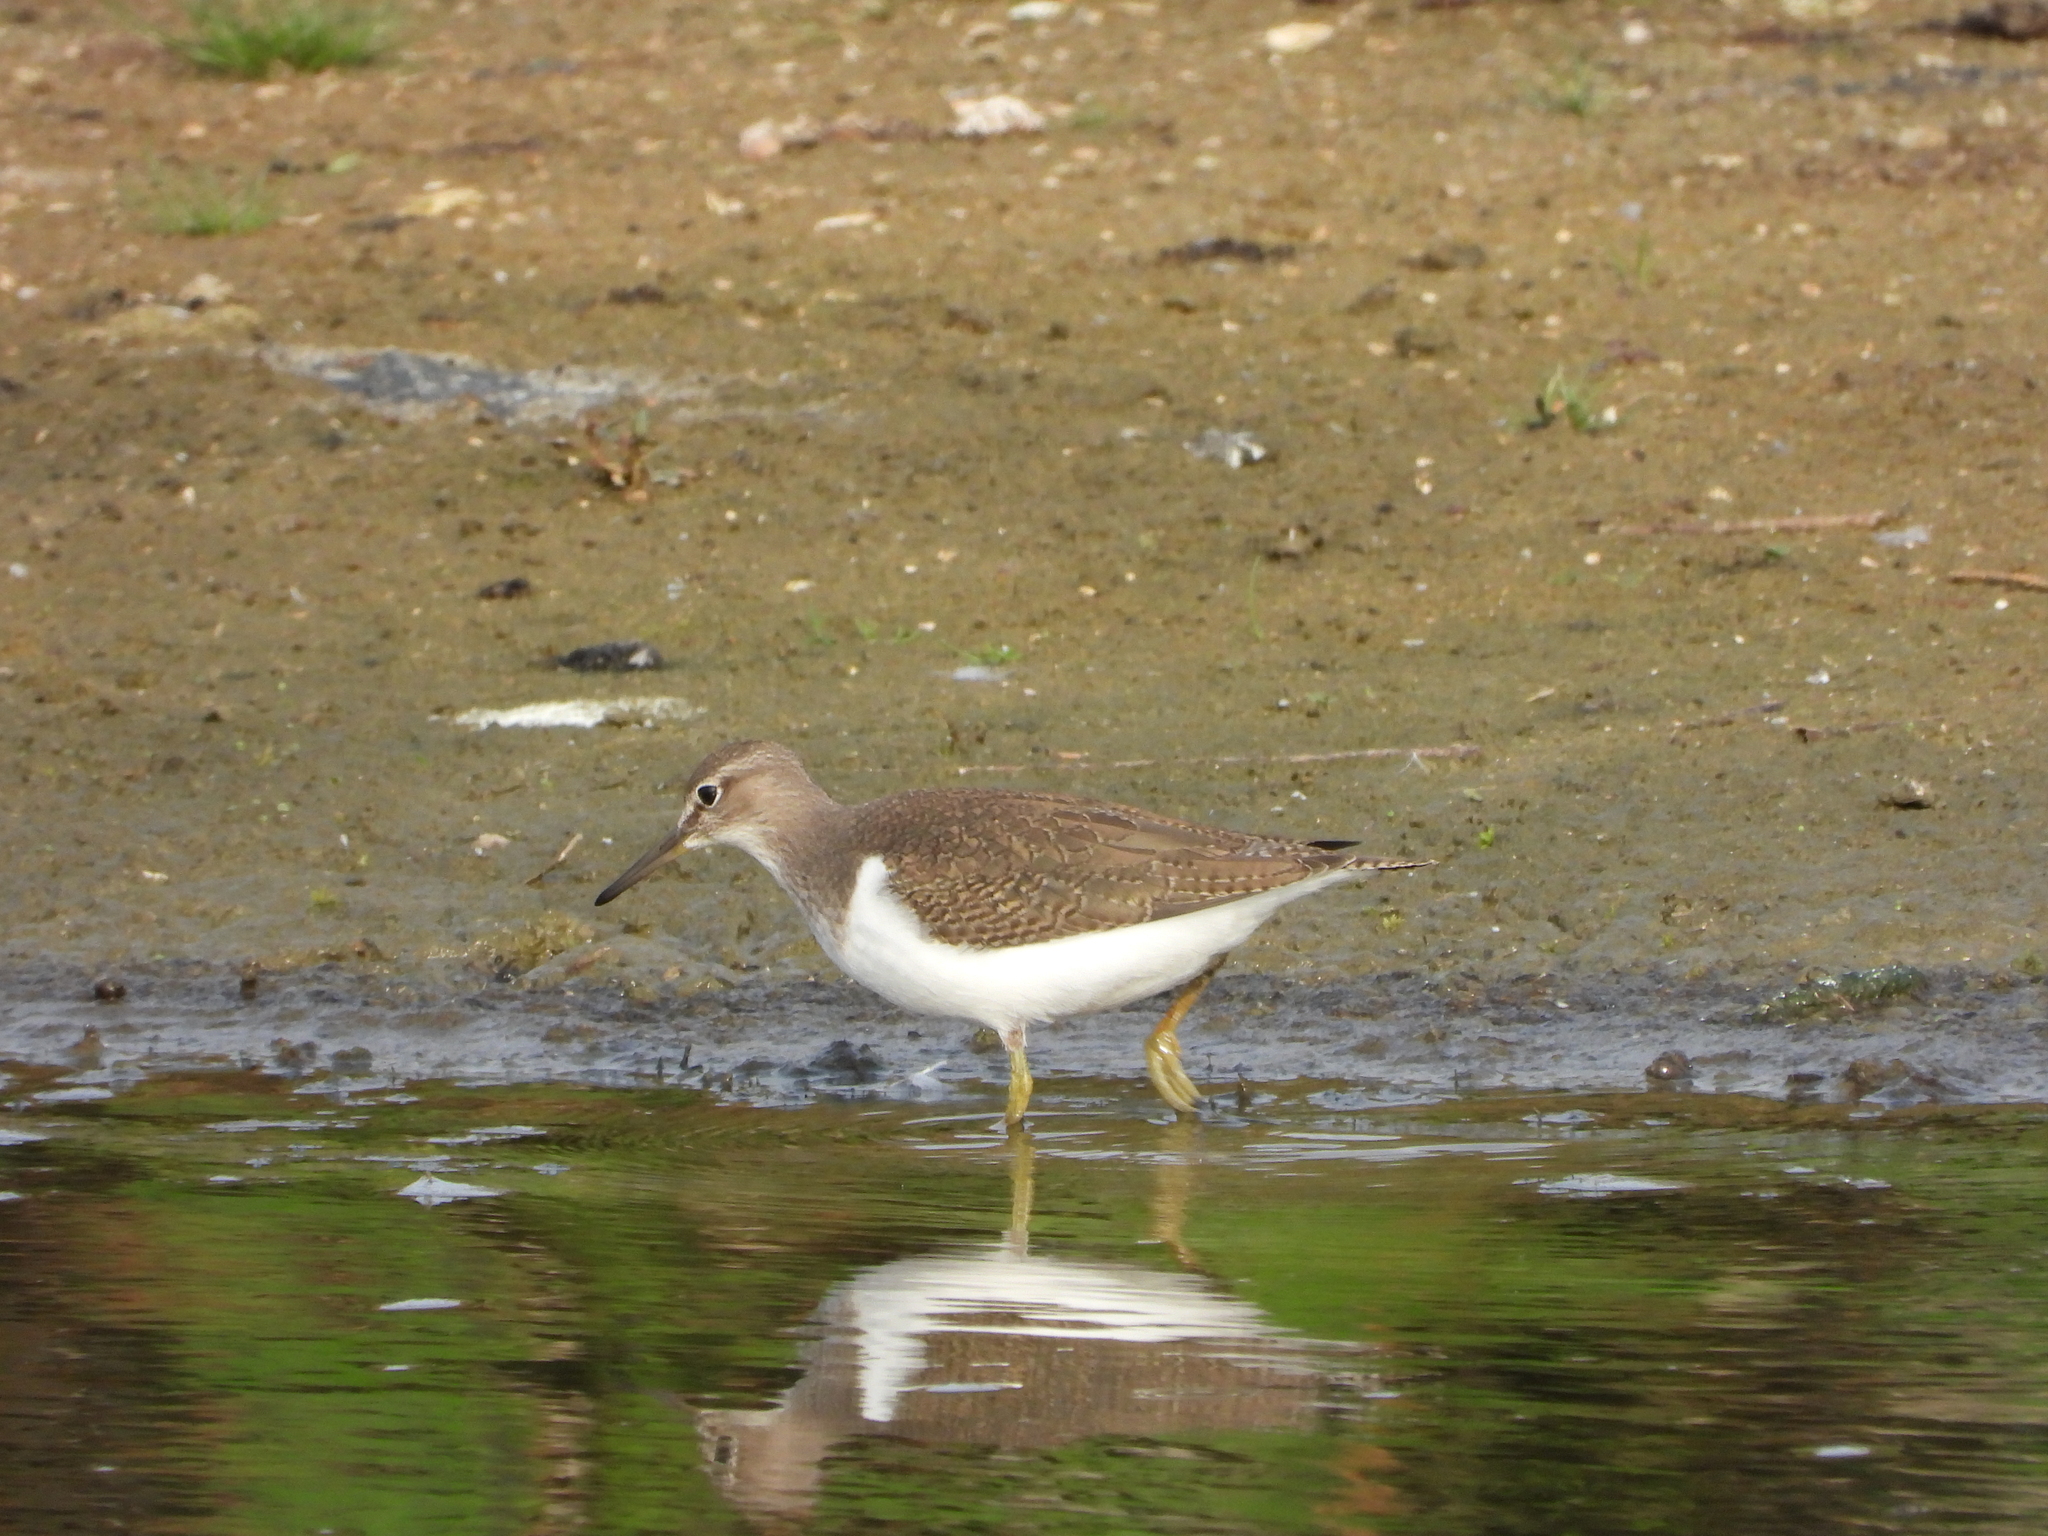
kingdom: Animalia
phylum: Chordata
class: Aves
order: Charadriiformes
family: Scolopacidae
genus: Actitis
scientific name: Actitis hypoleucos
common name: Common sandpiper
